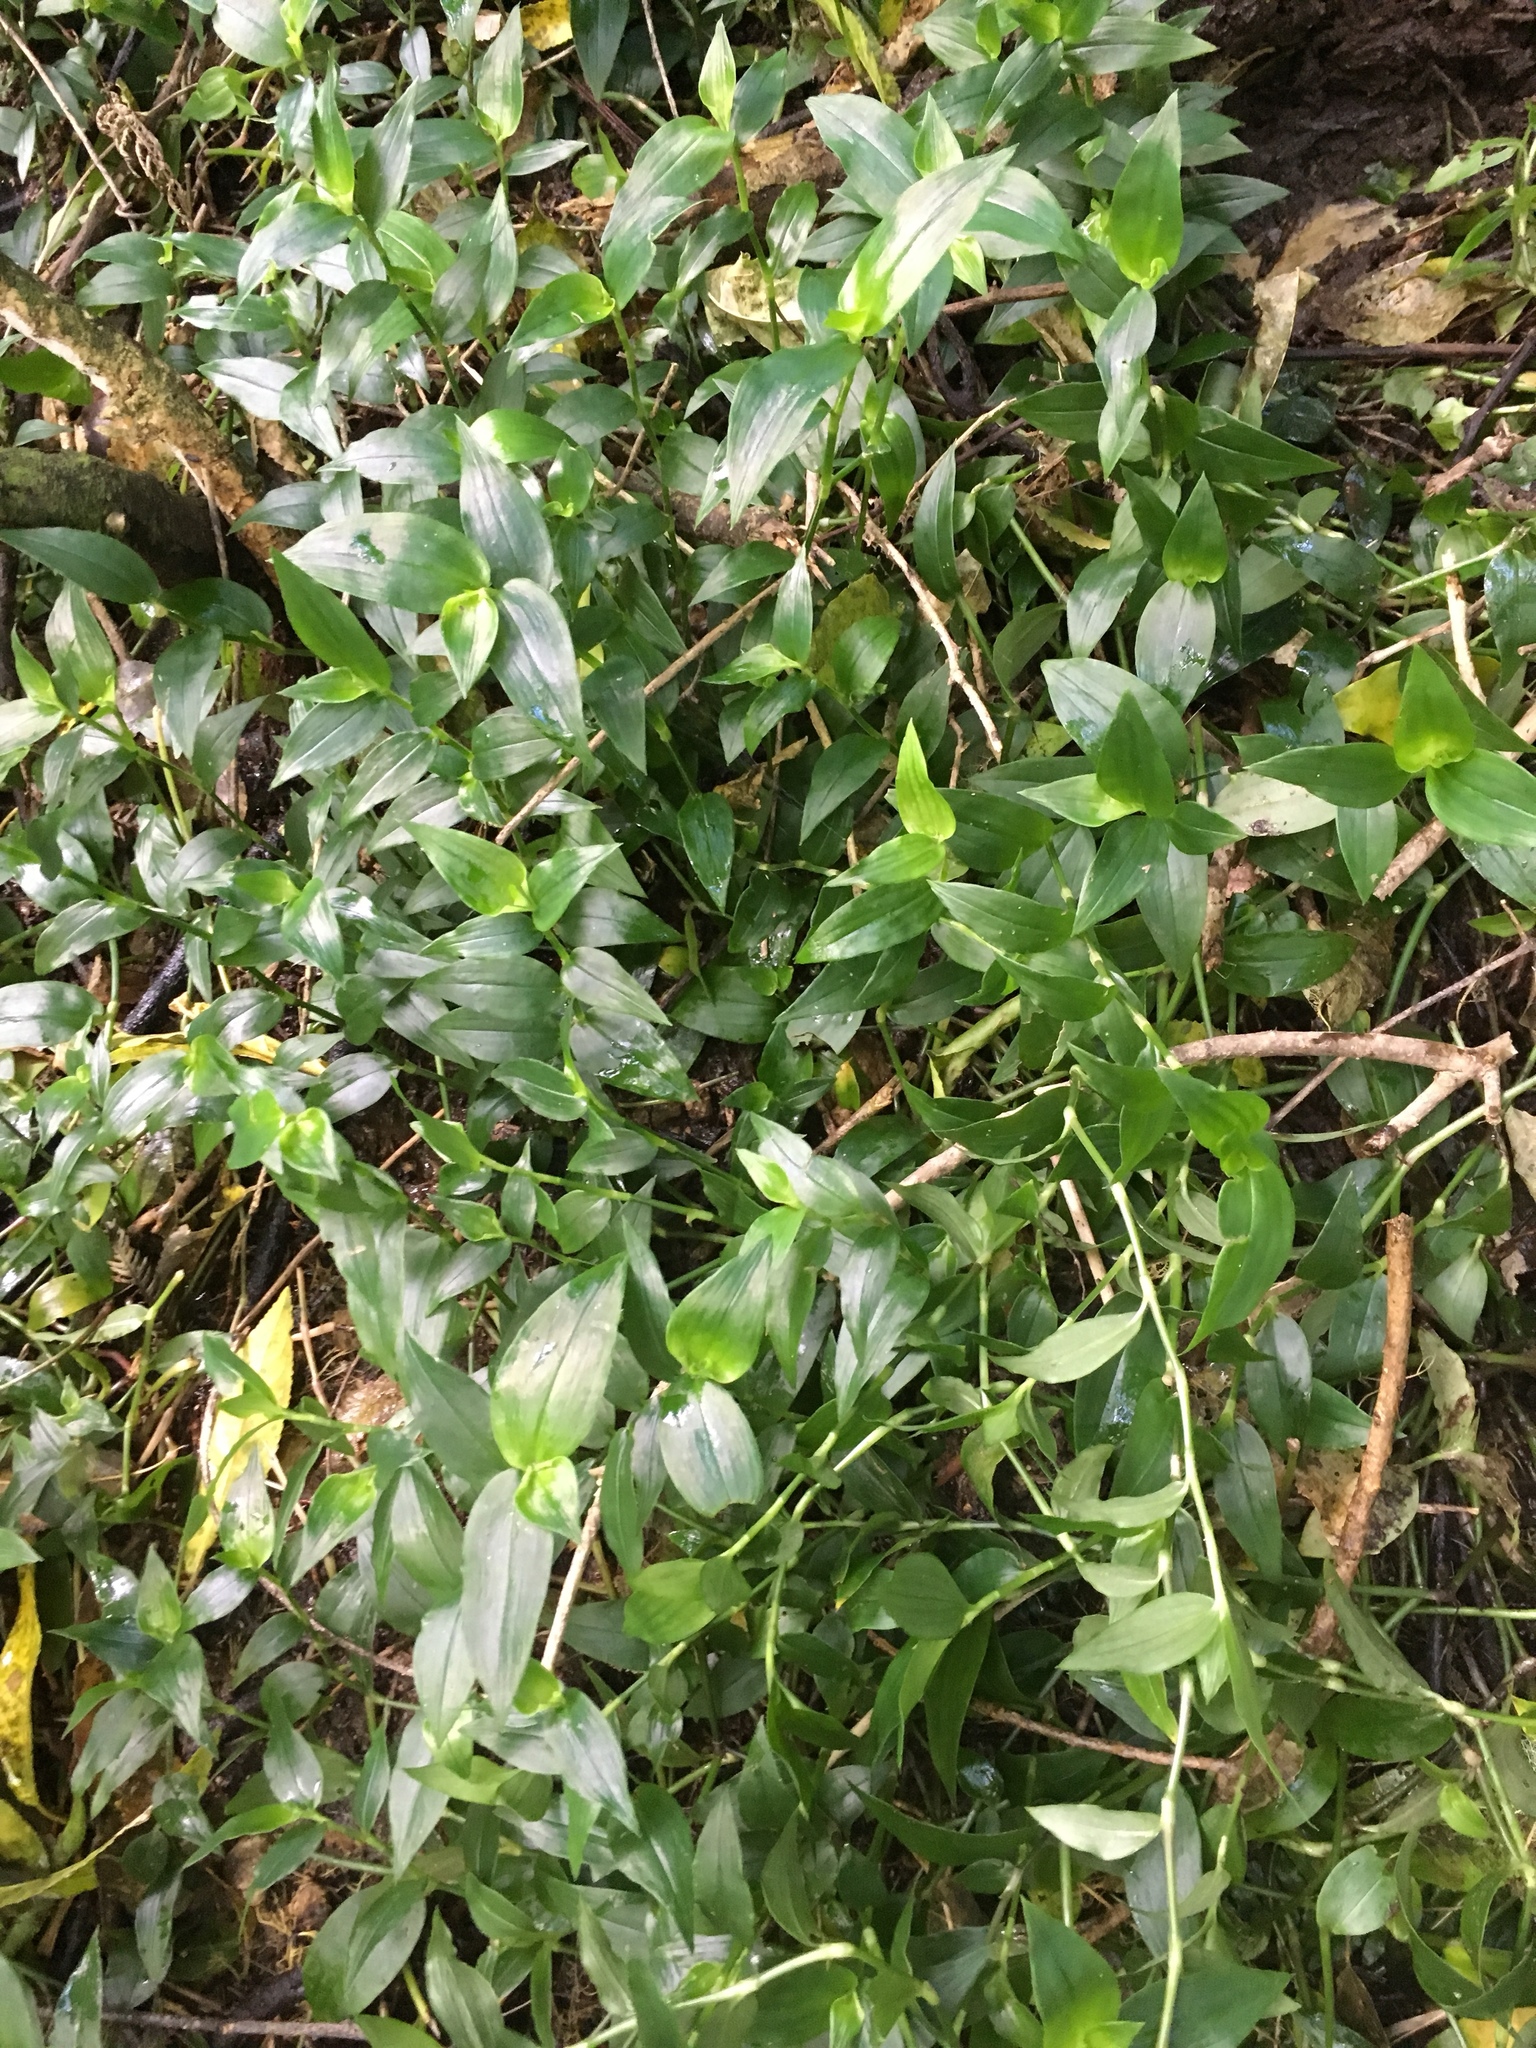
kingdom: Plantae
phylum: Tracheophyta
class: Liliopsida
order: Commelinales
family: Commelinaceae
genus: Tradescantia
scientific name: Tradescantia fluminensis
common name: Wandering-jew
